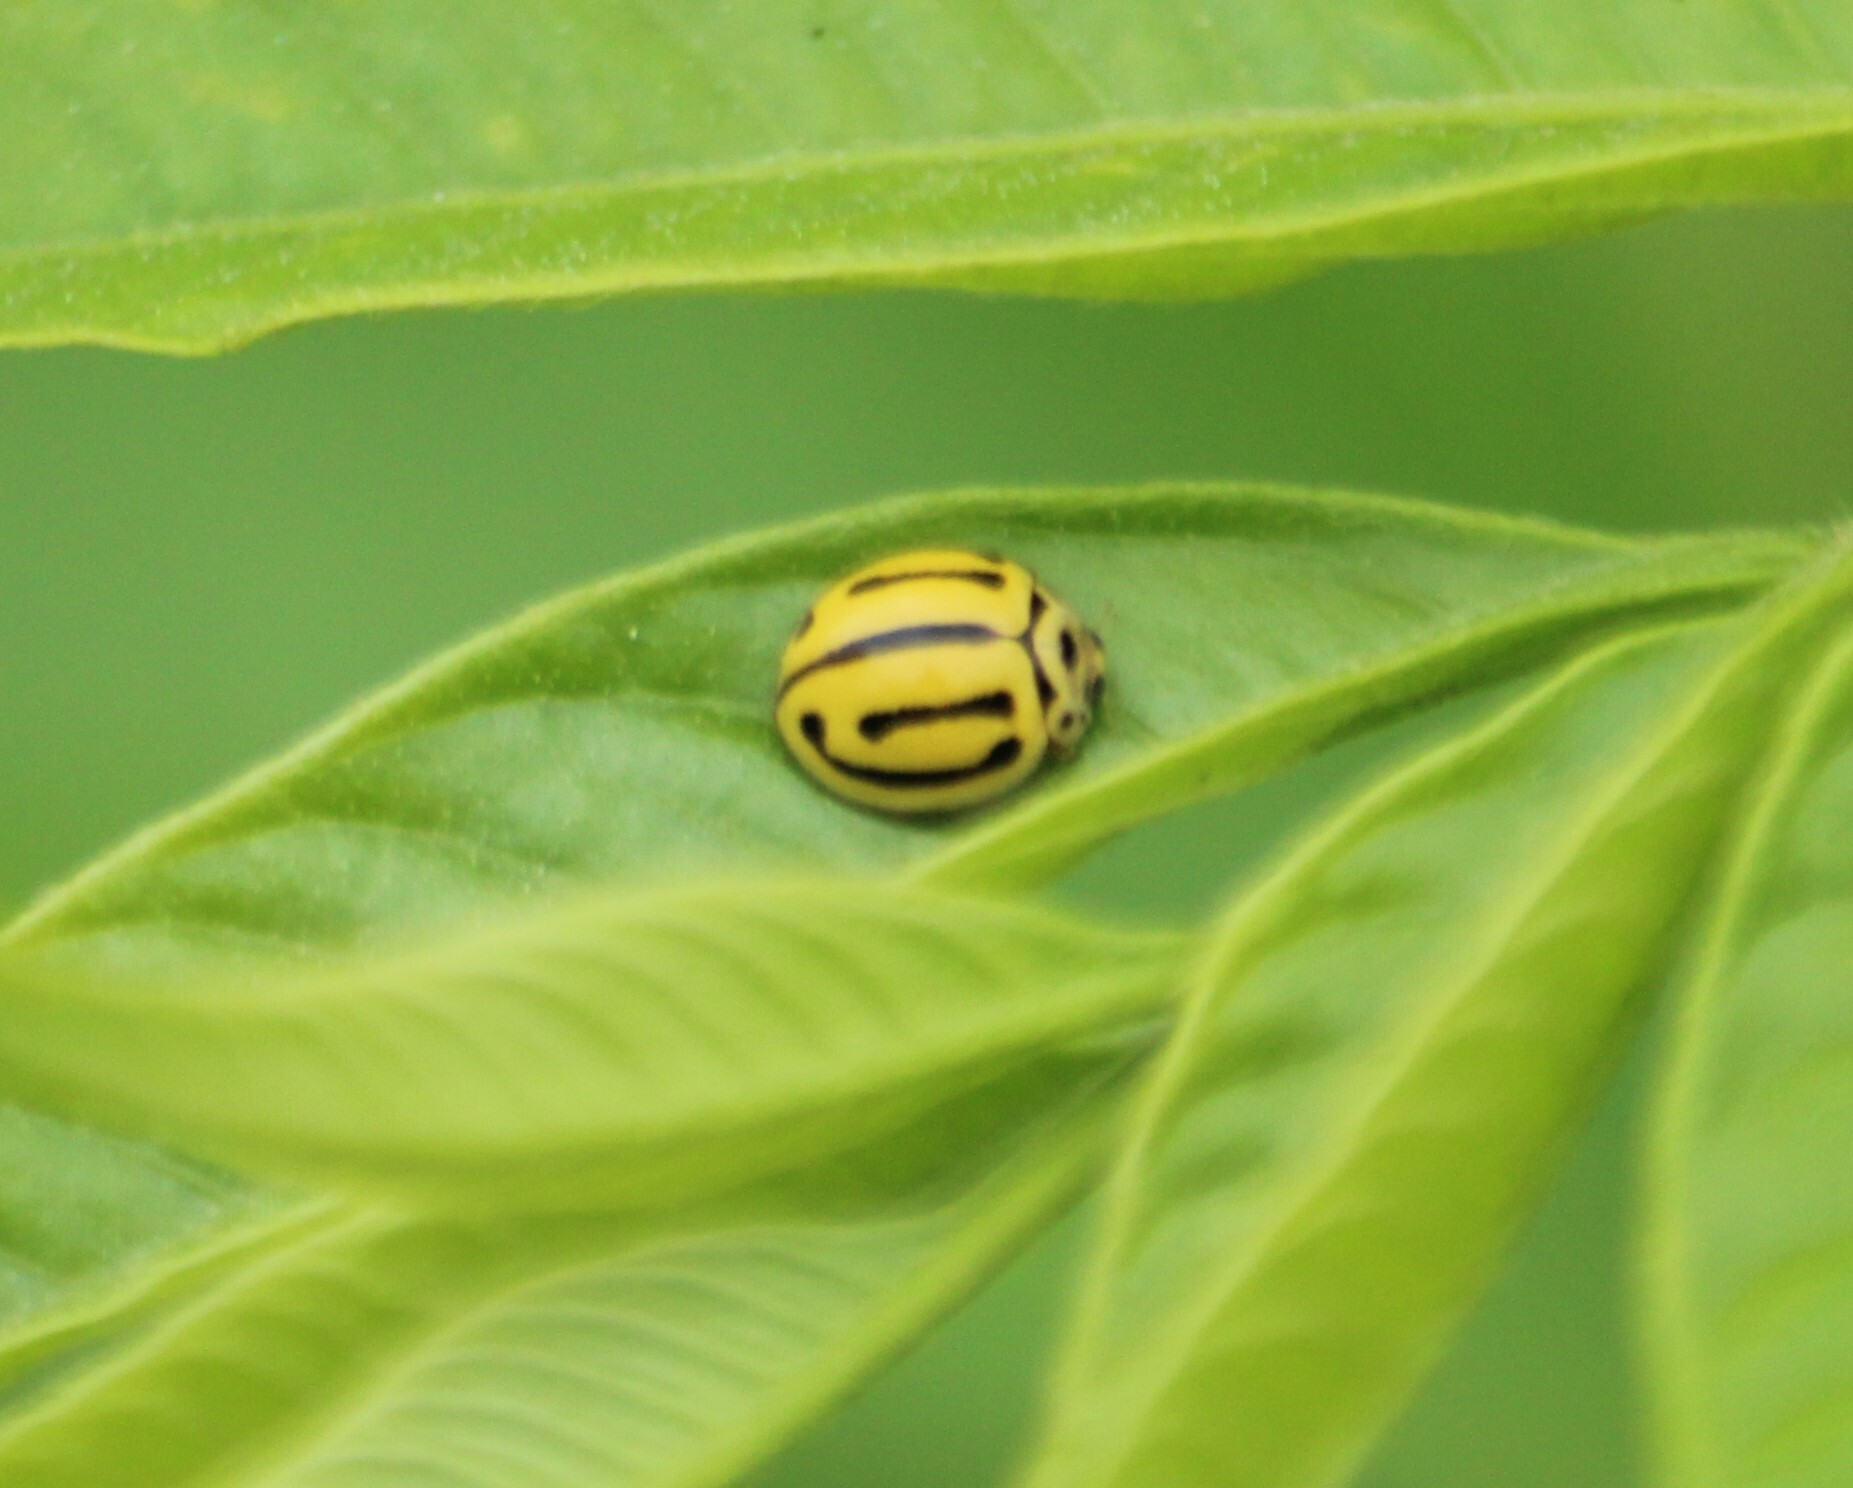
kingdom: Animalia
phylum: Arthropoda
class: Insecta
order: Coleoptera
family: Coccinellidae
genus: Phrynocaria
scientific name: Phrynocaria perrotteti
